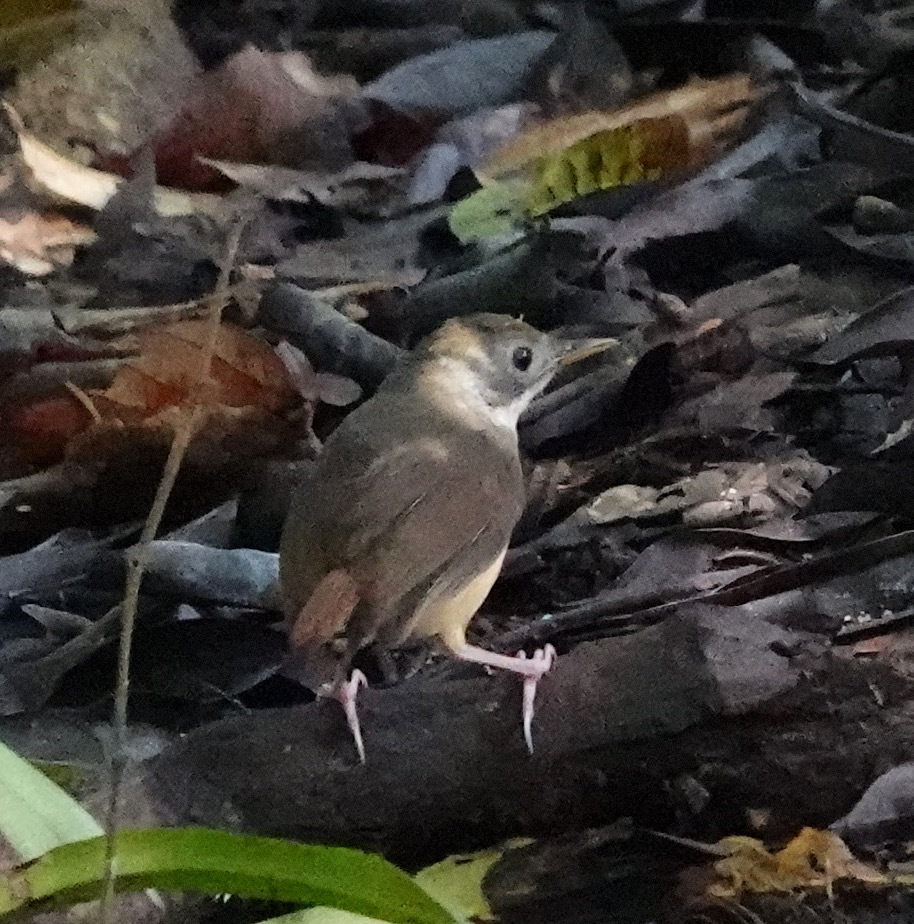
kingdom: Animalia
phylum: Chordata
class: Aves
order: Passeriformes
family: Pellorneidae
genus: Pellorneum
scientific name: Pellorneum malaccense
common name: Short-tailed babbler
